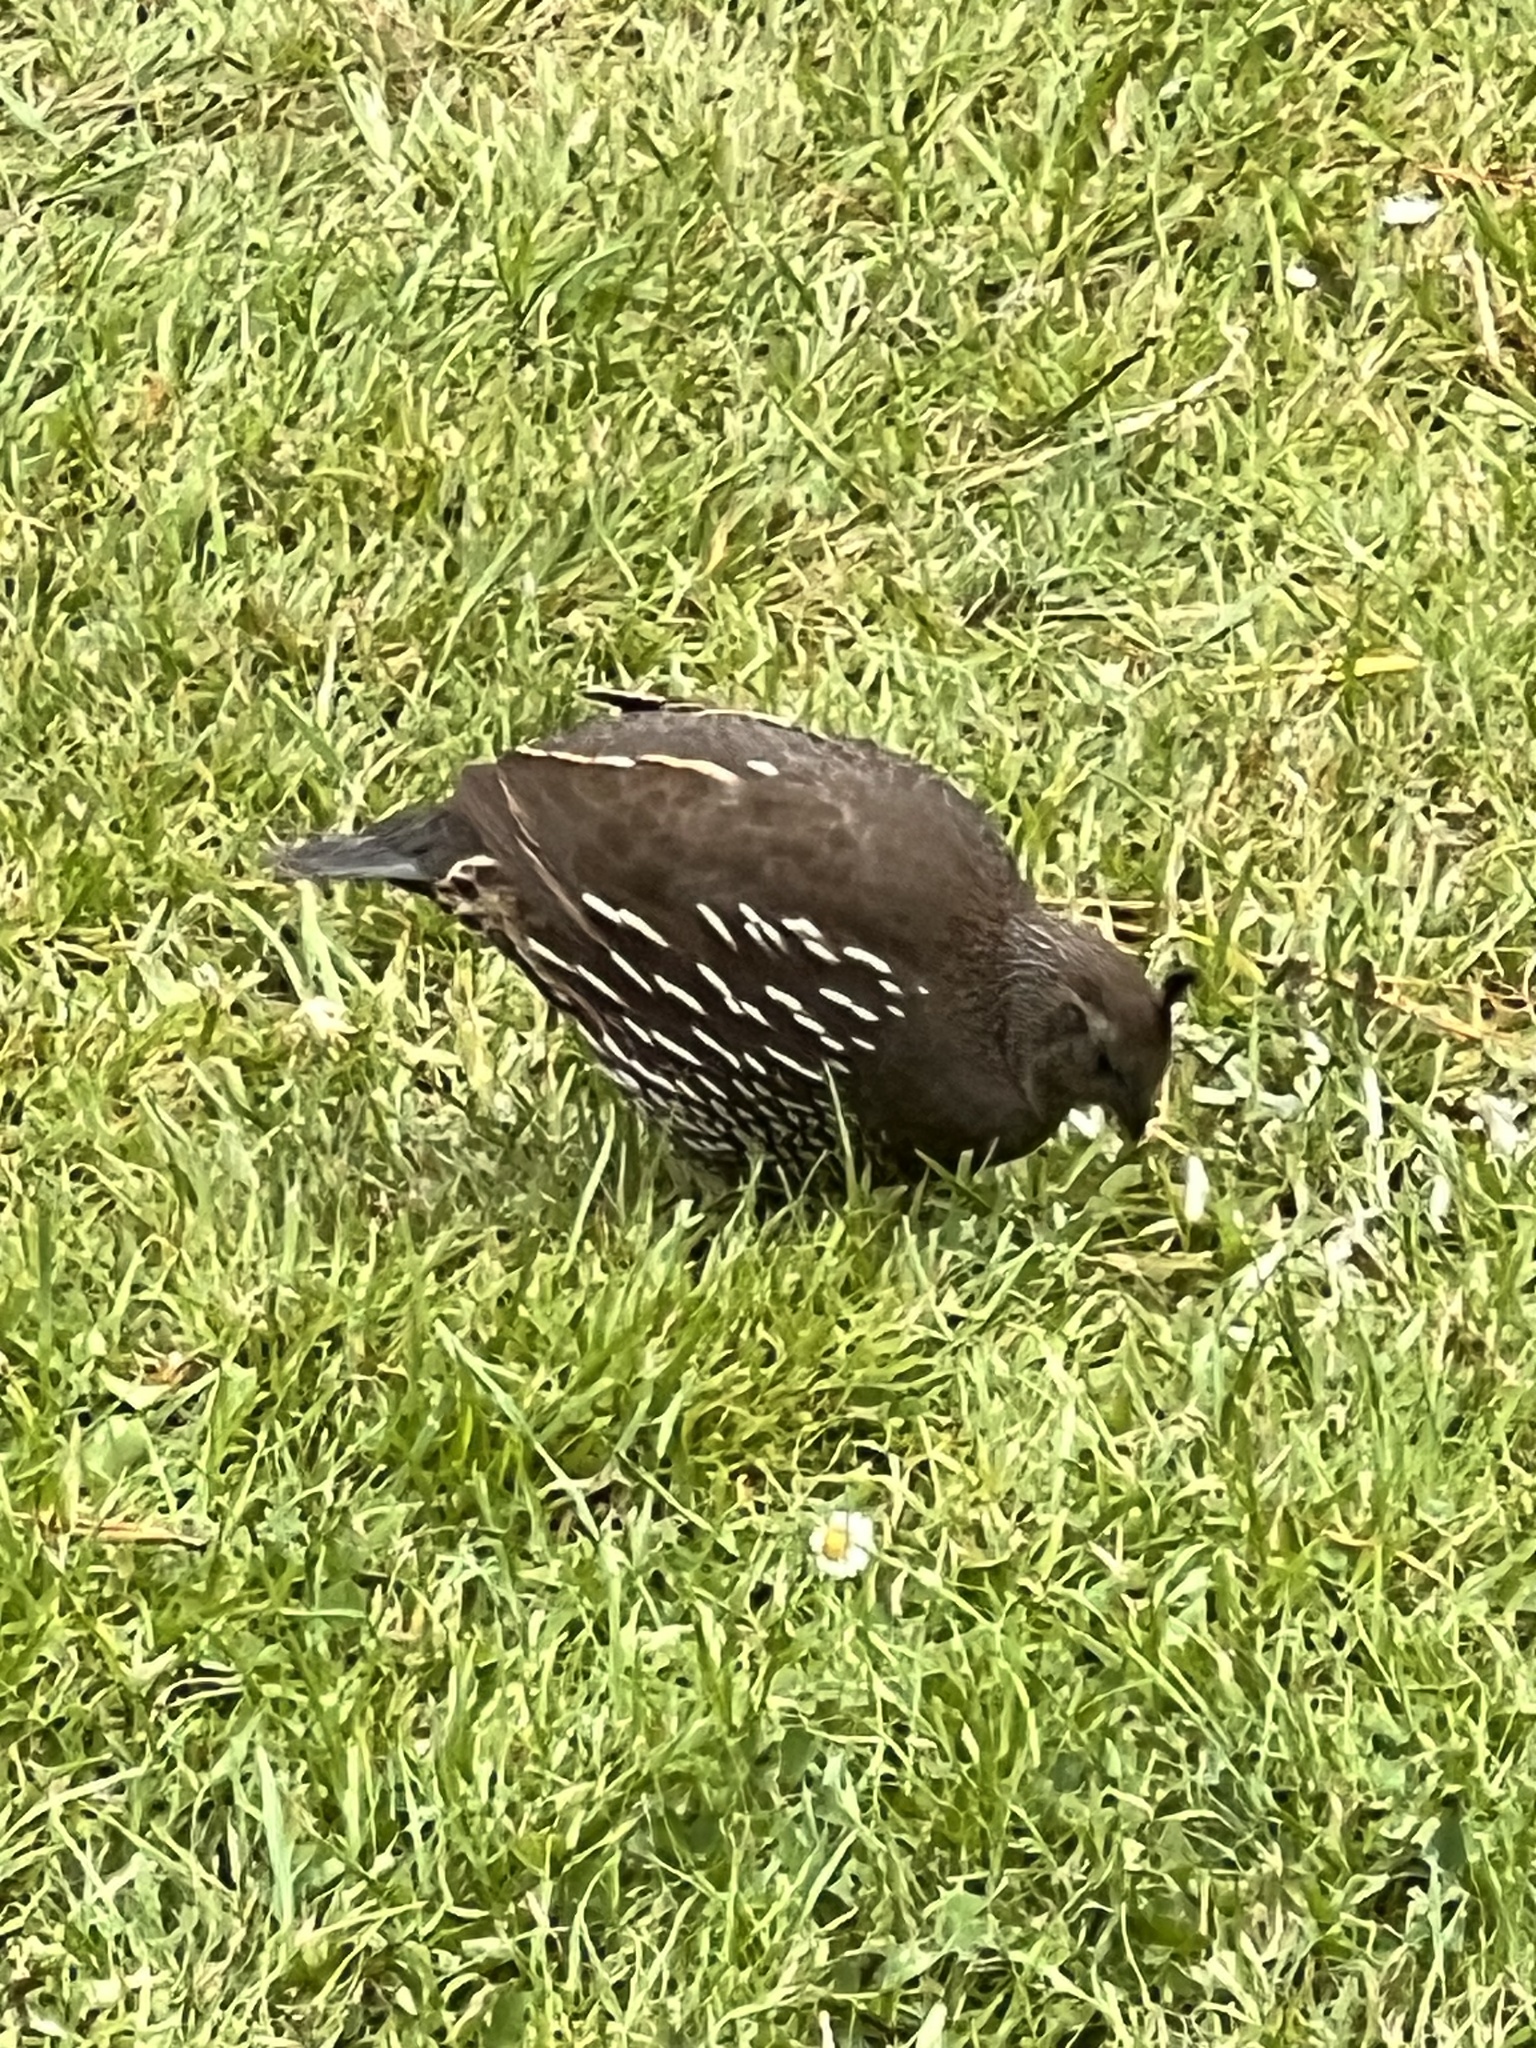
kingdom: Animalia
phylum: Chordata
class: Aves
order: Galliformes
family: Odontophoridae
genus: Callipepla
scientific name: Callipepla californica
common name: California quail
